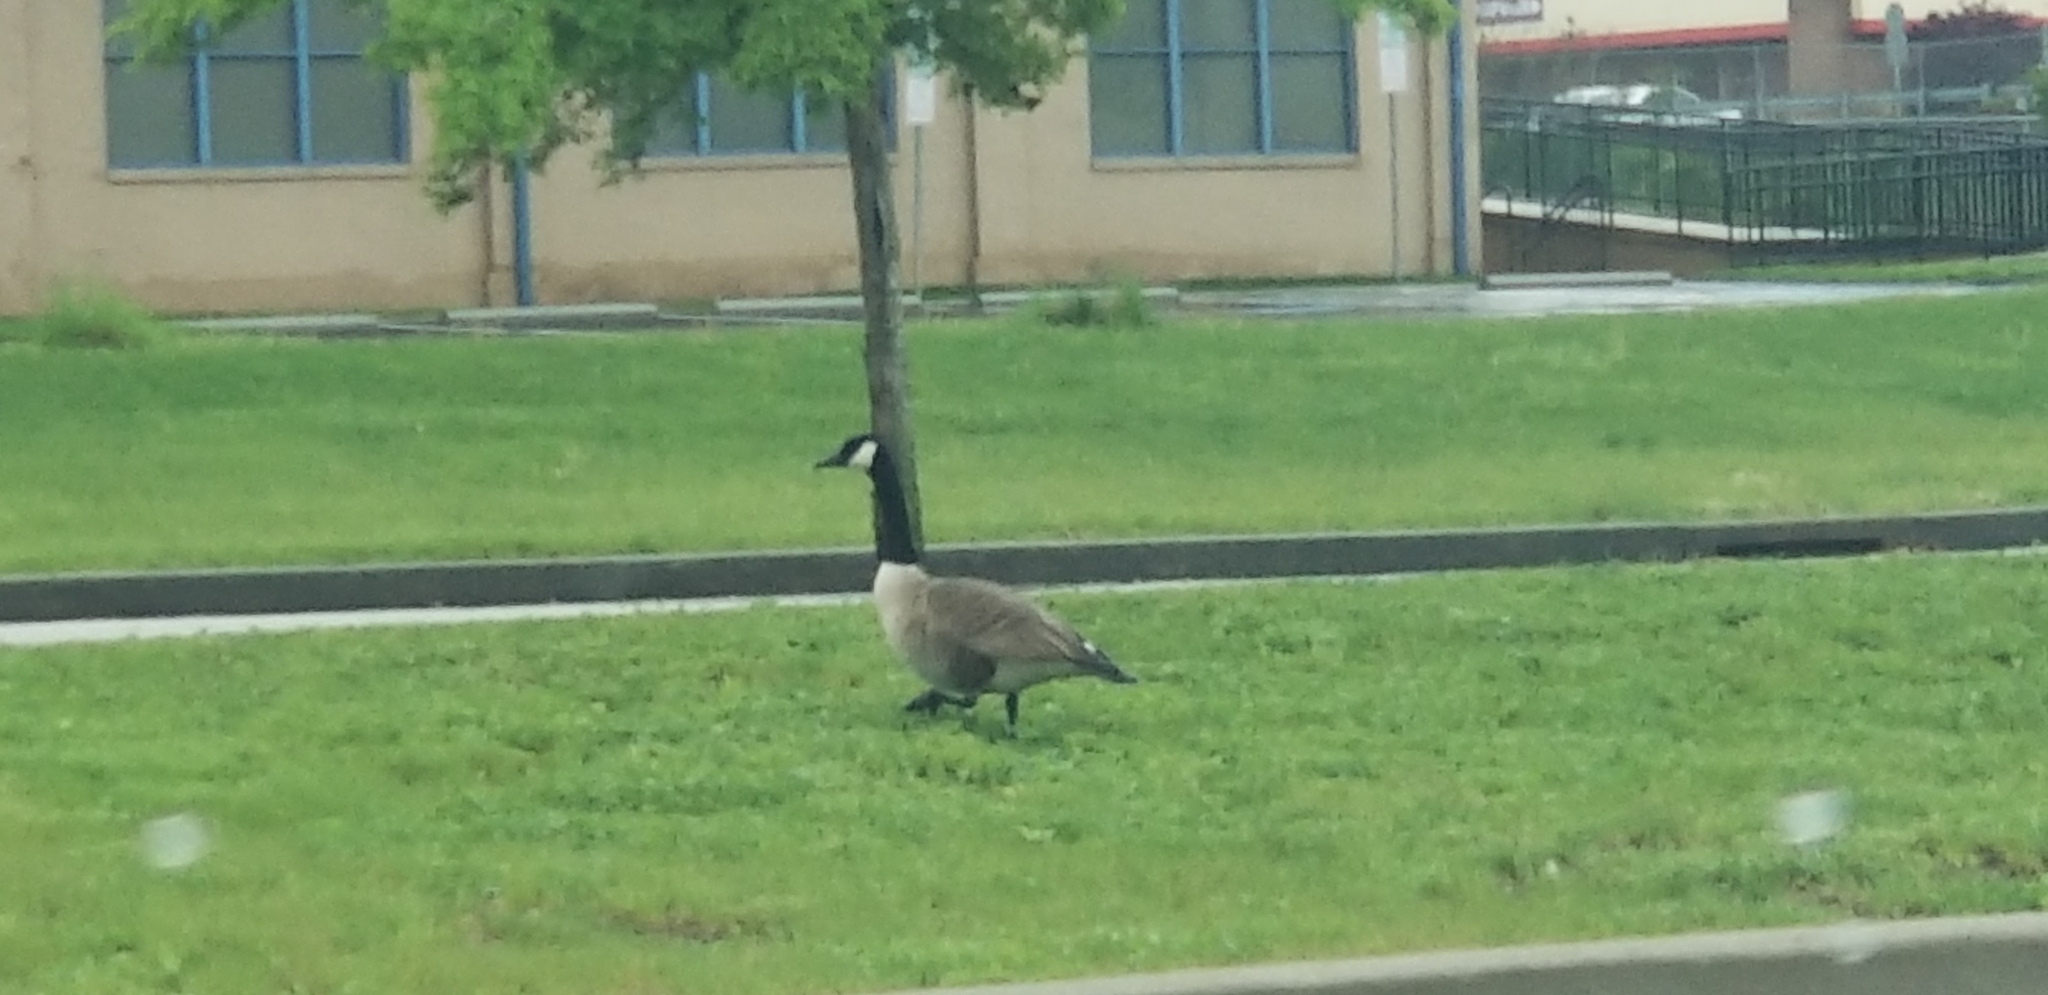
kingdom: Animalia
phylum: Chordata
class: Aves
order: Anseriformes
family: Anatidae
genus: Branta
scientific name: Branta canadensis
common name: Canada goose
